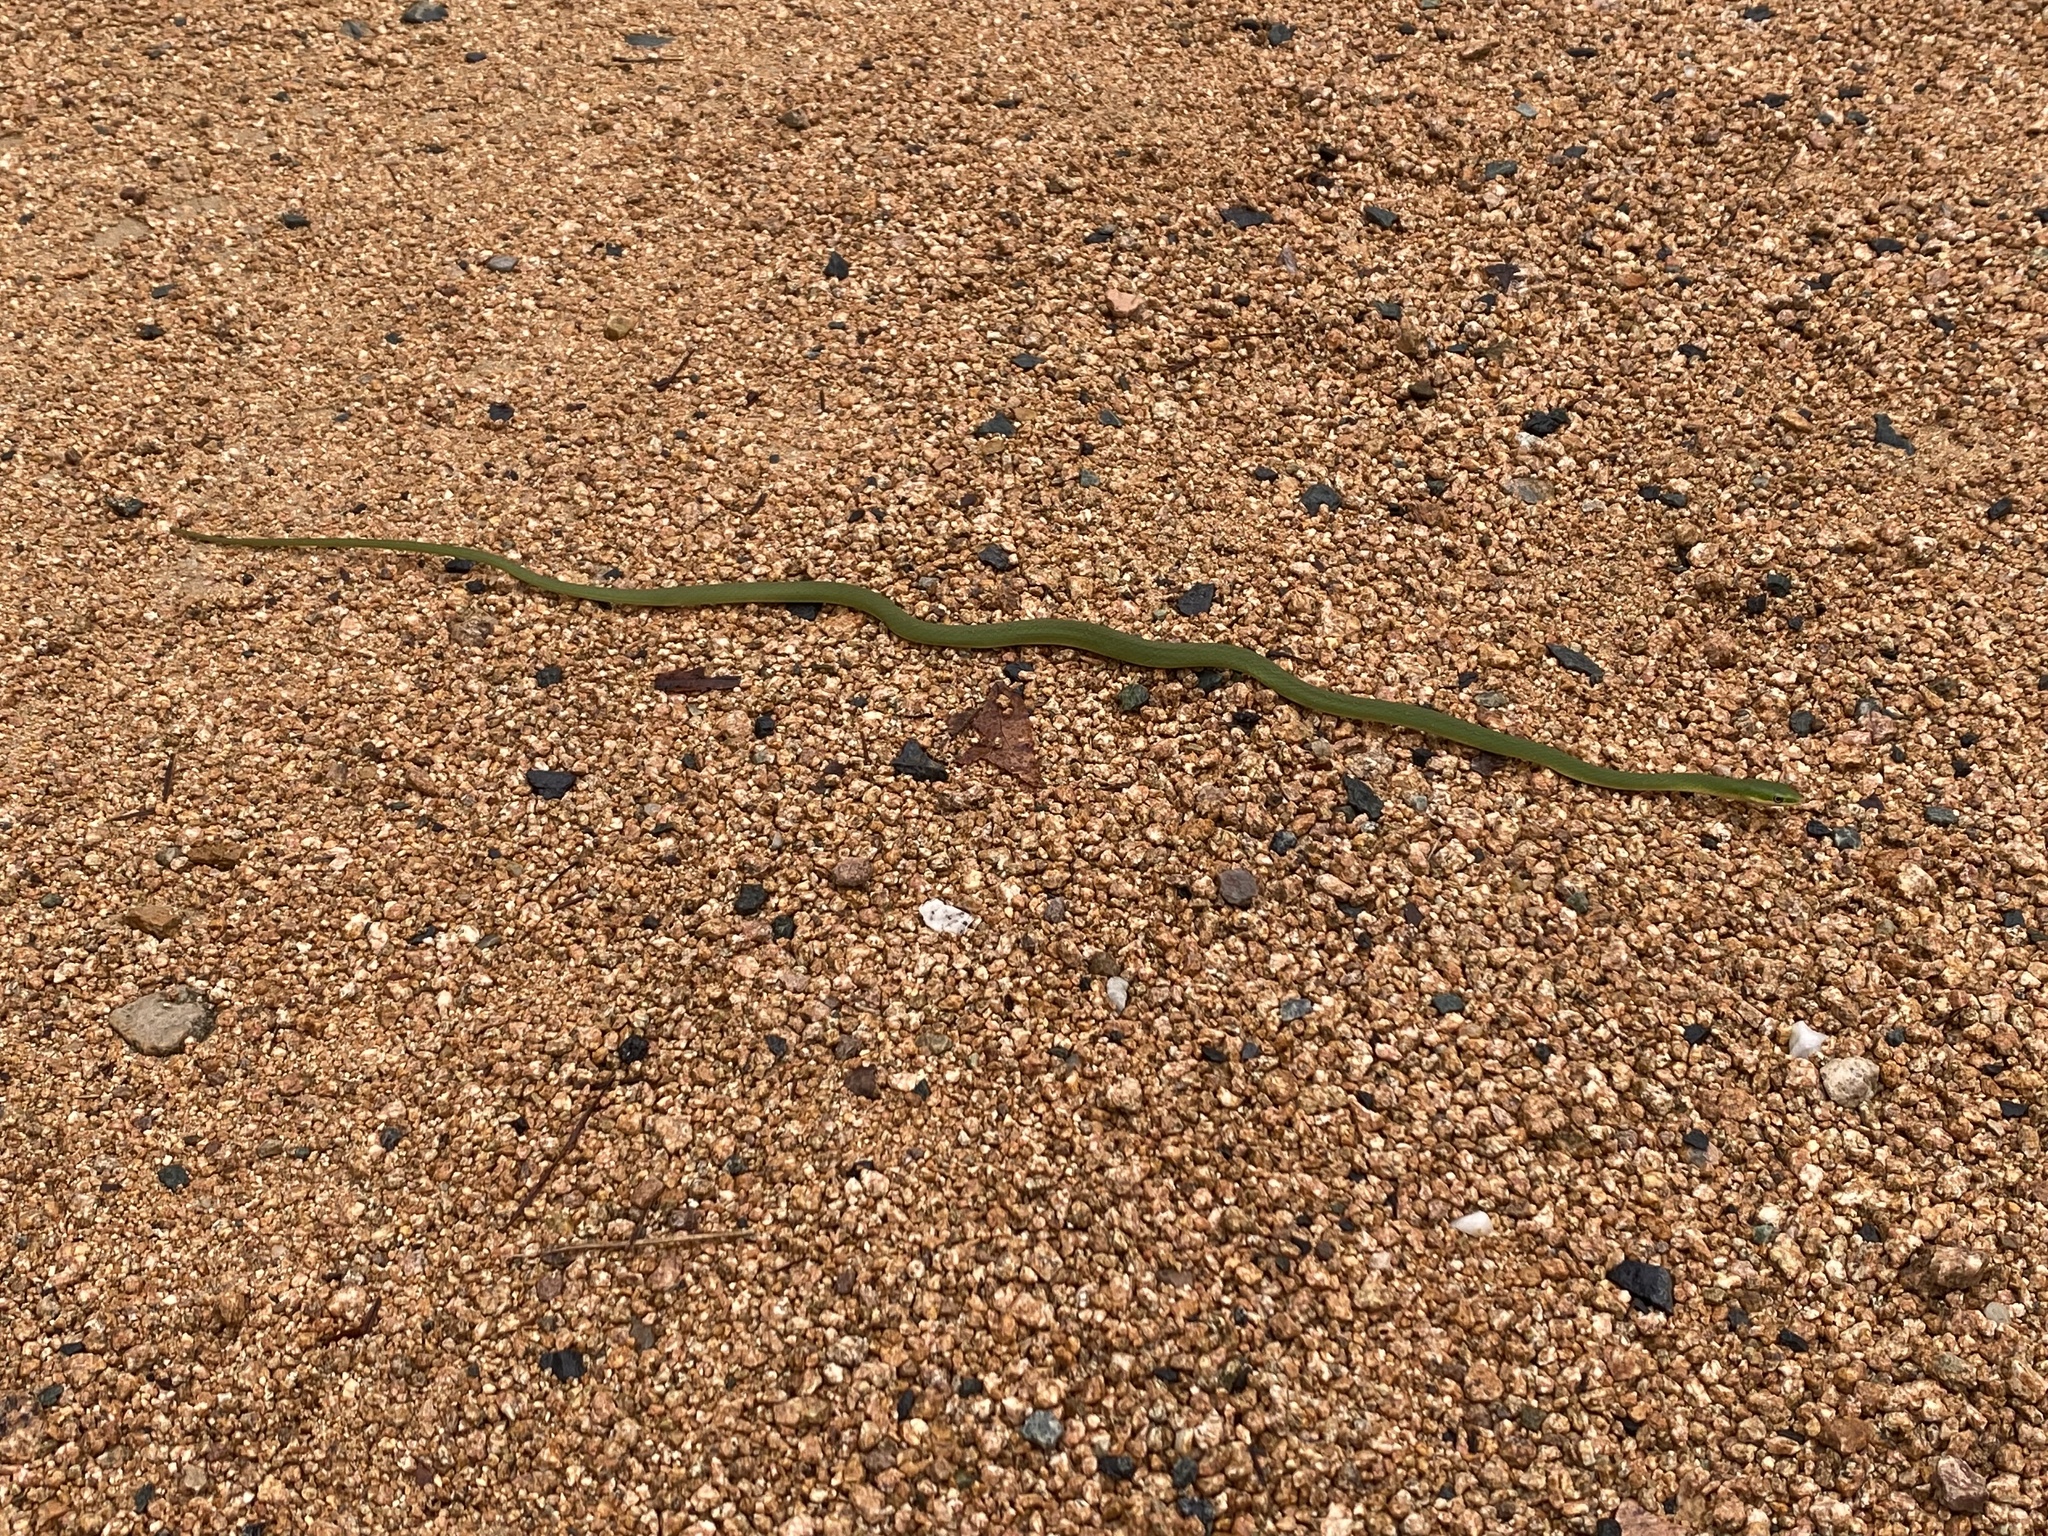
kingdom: Animalia
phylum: Chordata
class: Squamata
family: Colubridae
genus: Opheodrys
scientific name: Opheodrys aestivus
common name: Rough greensnake
